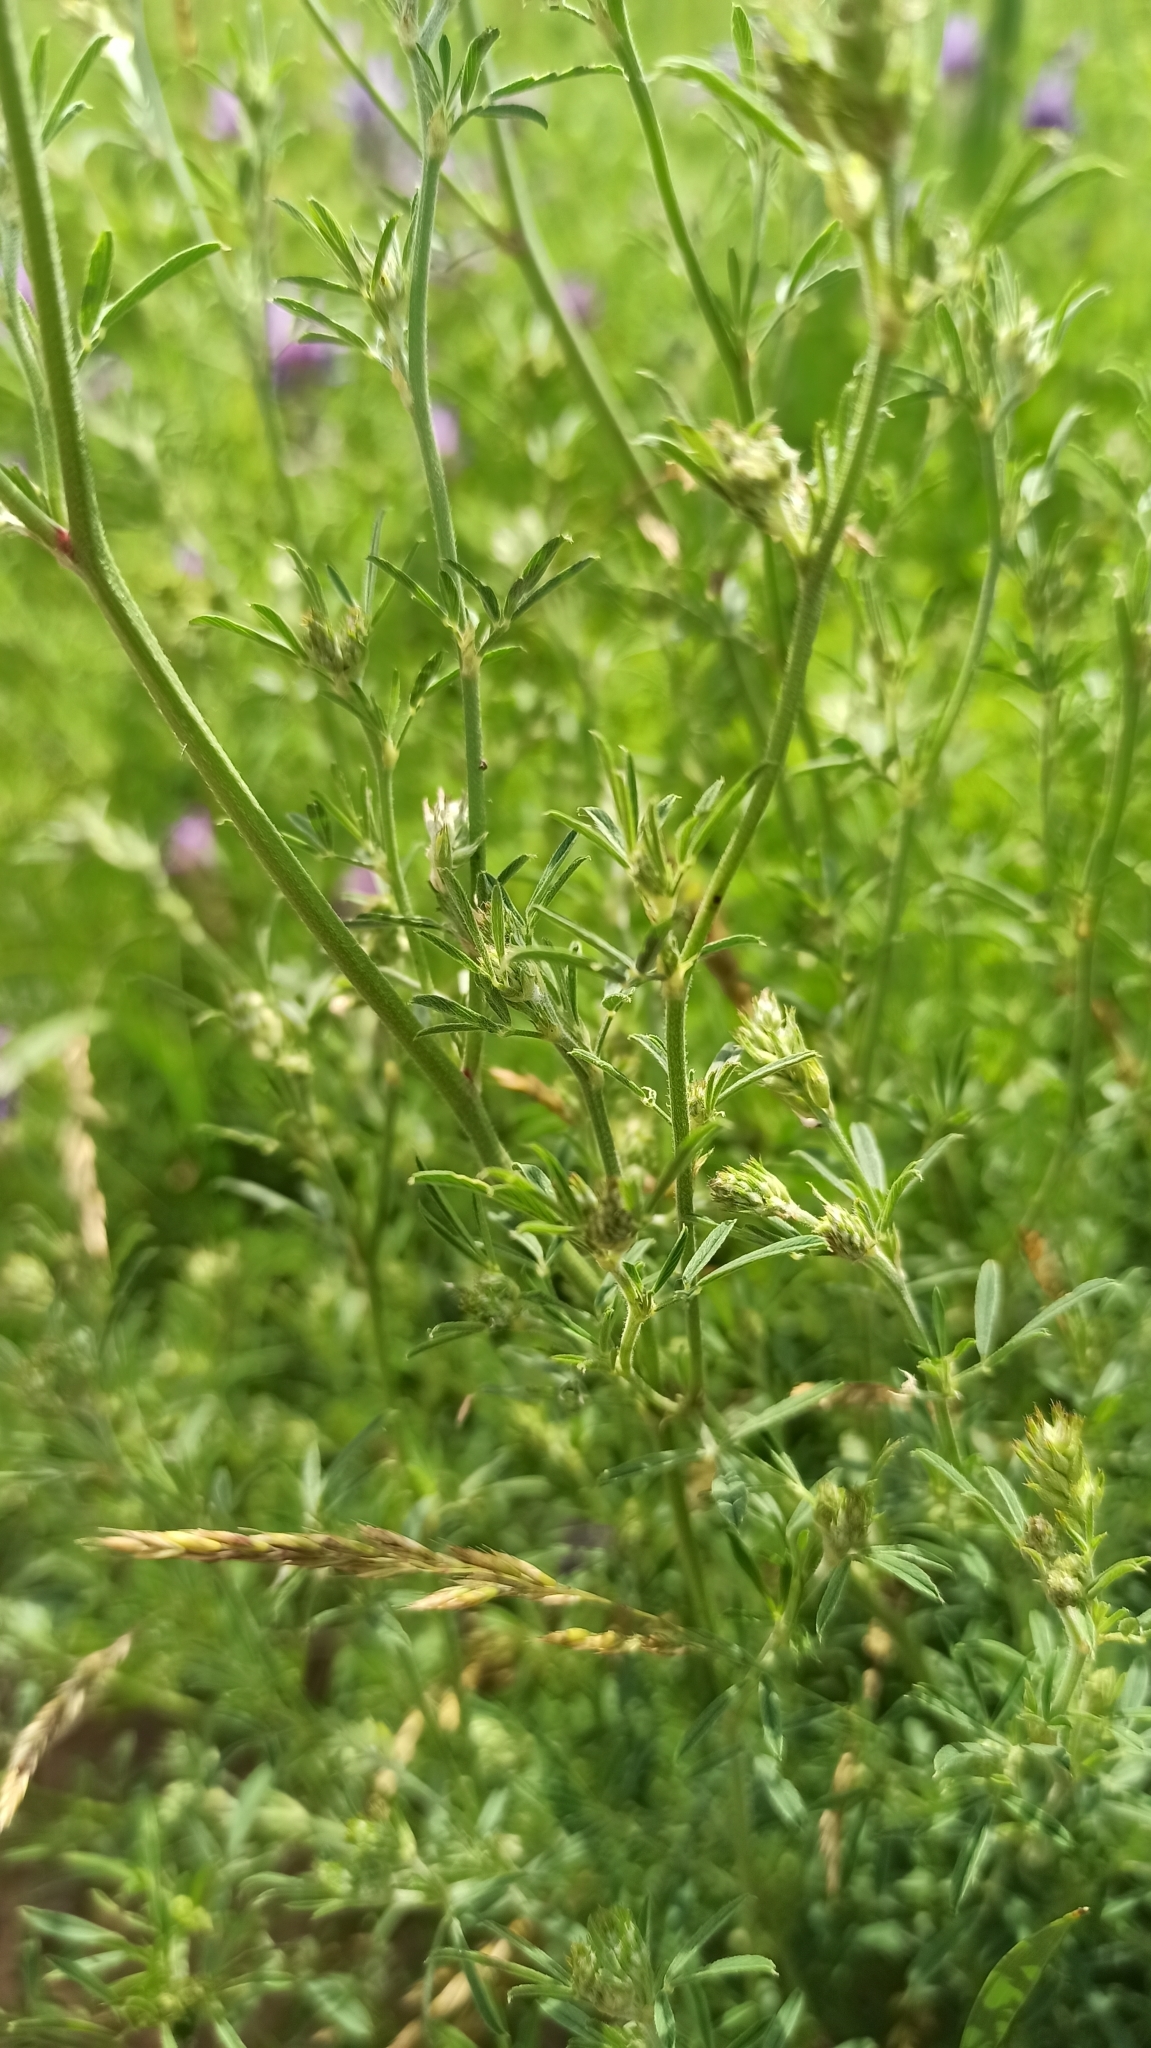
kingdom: Plantae
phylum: Tracheophyta
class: Magnoliopsida
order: Fabales
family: Fabaceae
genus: Medicago
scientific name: Medicago falcata
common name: Sickle medick
